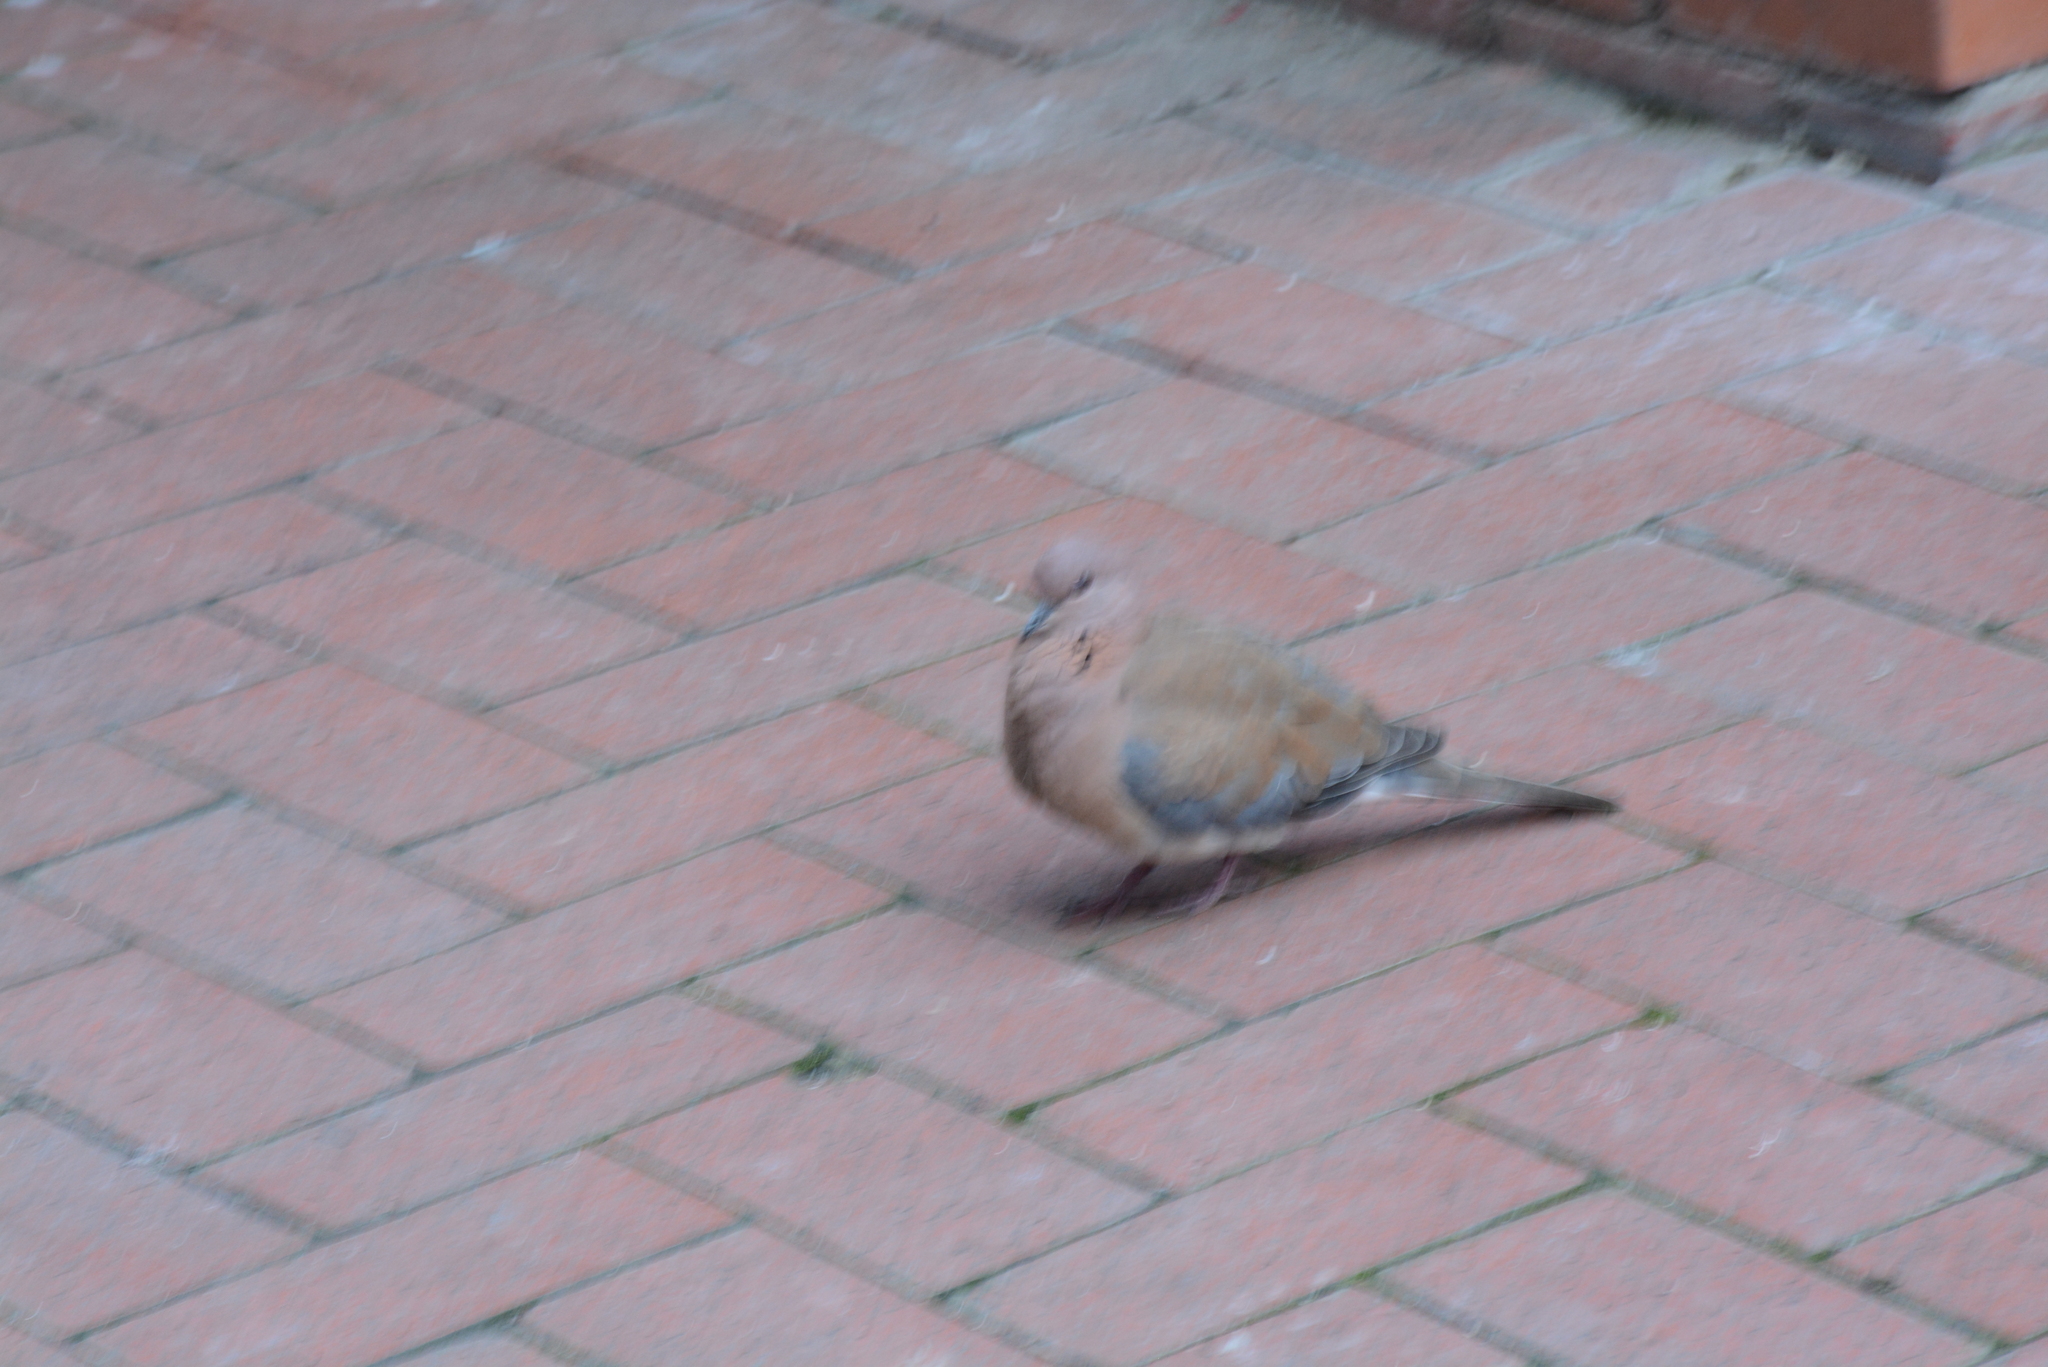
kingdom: Animalia
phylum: Chordata
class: Aves
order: Columbiformes
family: Columbidae
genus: Spilopelia
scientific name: Spilopelia senegalensis
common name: Laughing dove
